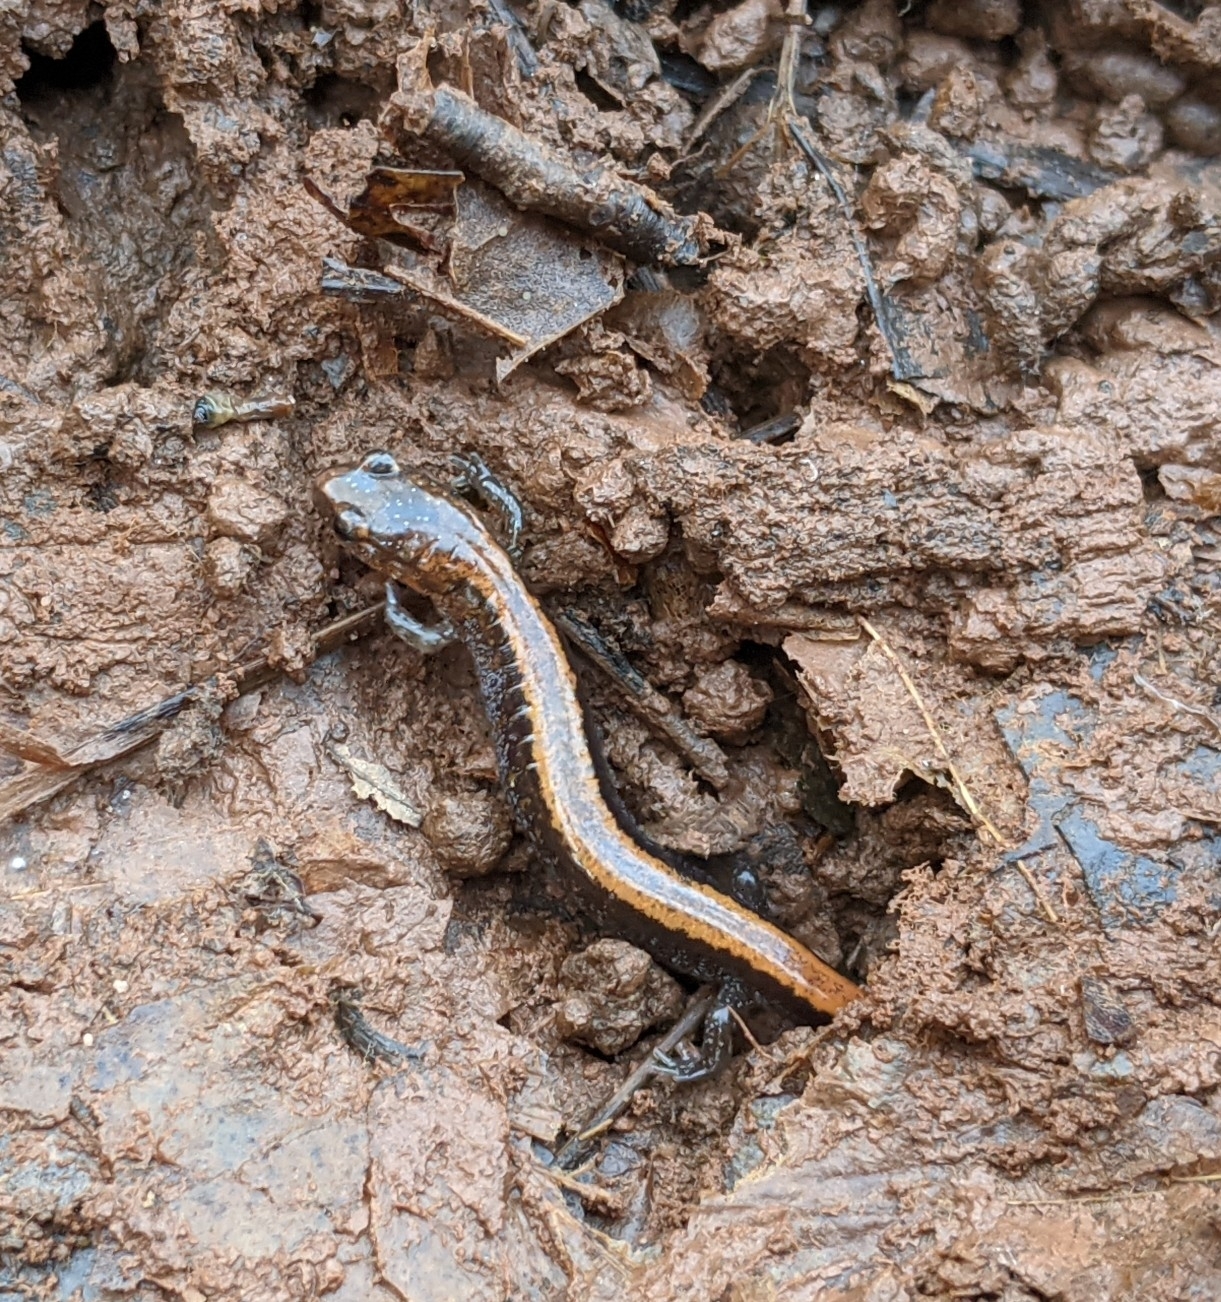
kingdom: Animalia
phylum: Chordata
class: Amphibia
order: Caudata
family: Plethodontidae
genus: Plethodon
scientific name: Plethodon cinereus
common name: Redback salamander
